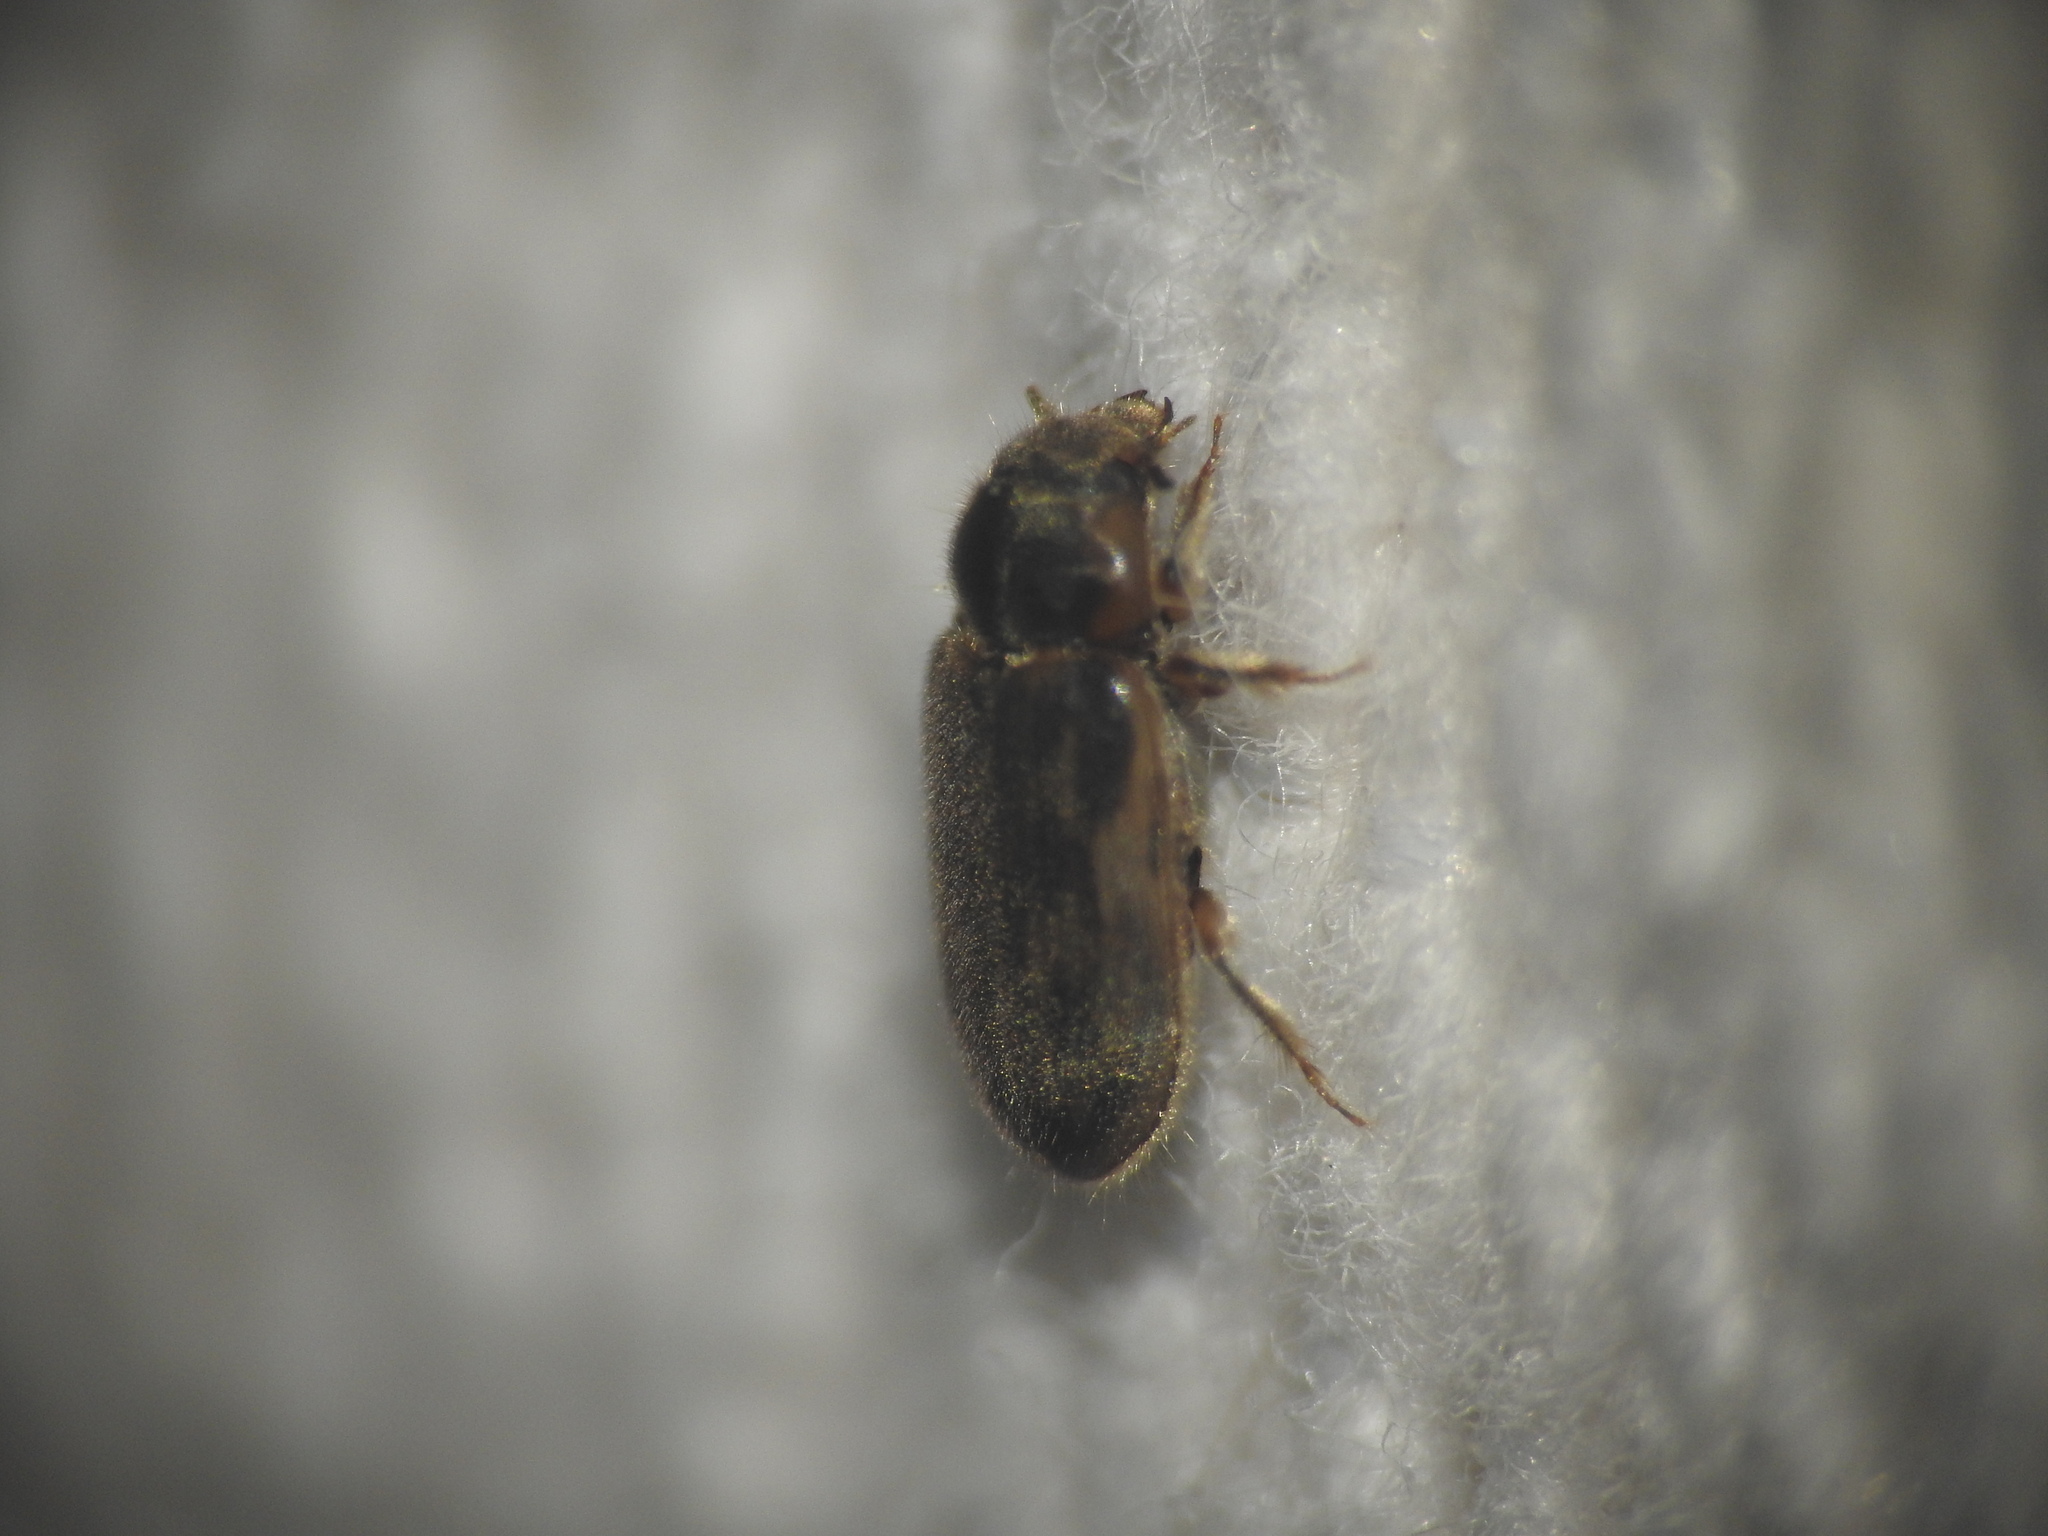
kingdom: Animalia
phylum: Arthropoda
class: Insecta
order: Coleoptera
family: Heteroceridae
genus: Heterocerus
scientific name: Heterocerus fenestratus
